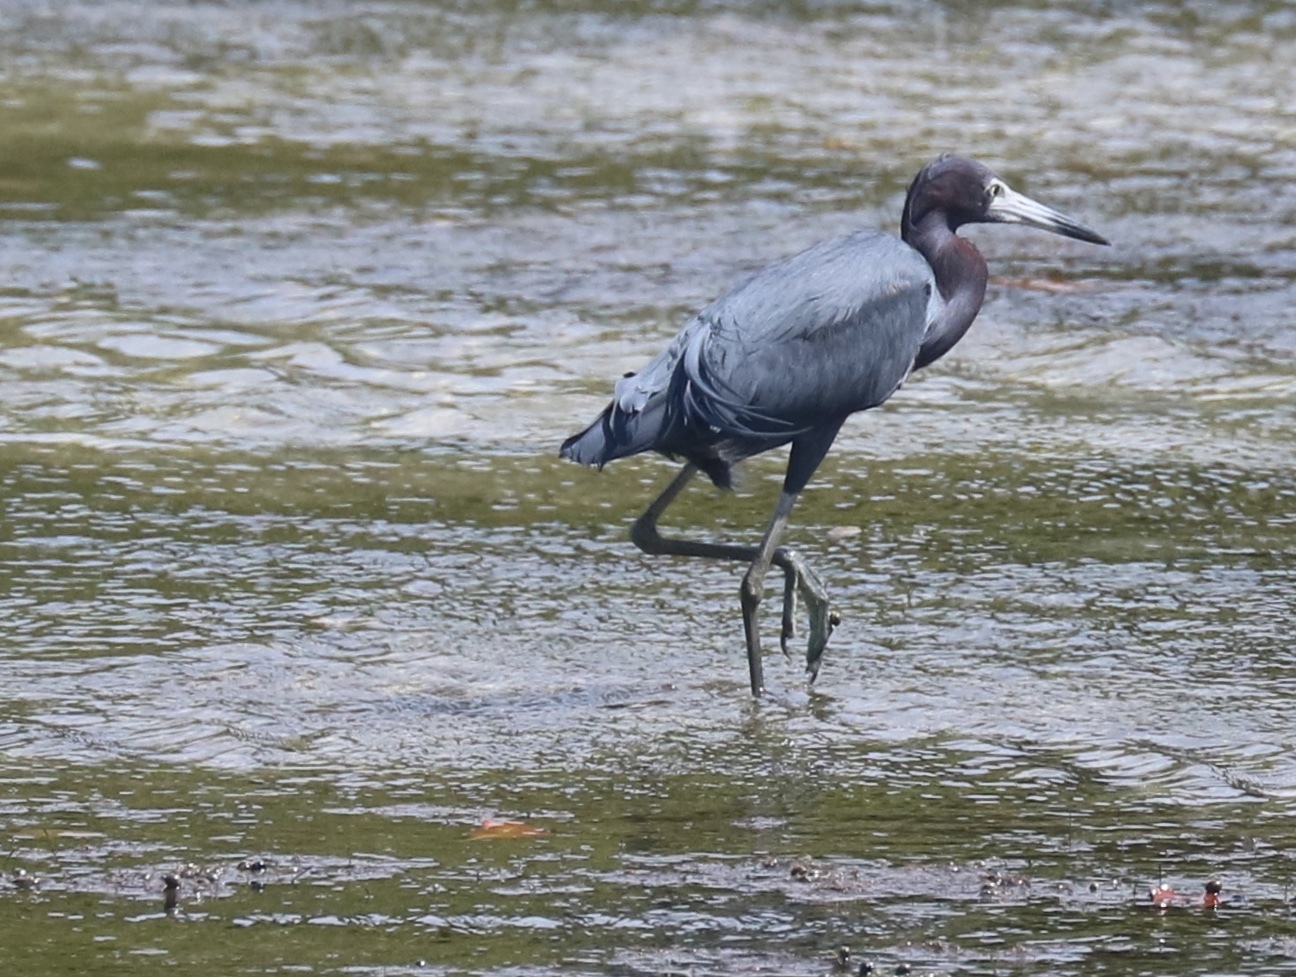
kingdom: Animalia
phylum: Chordata
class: Aves
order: Pelecaniformes
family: Ardeidae
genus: Egretta
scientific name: Egretta caerulea
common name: Little blue heron
